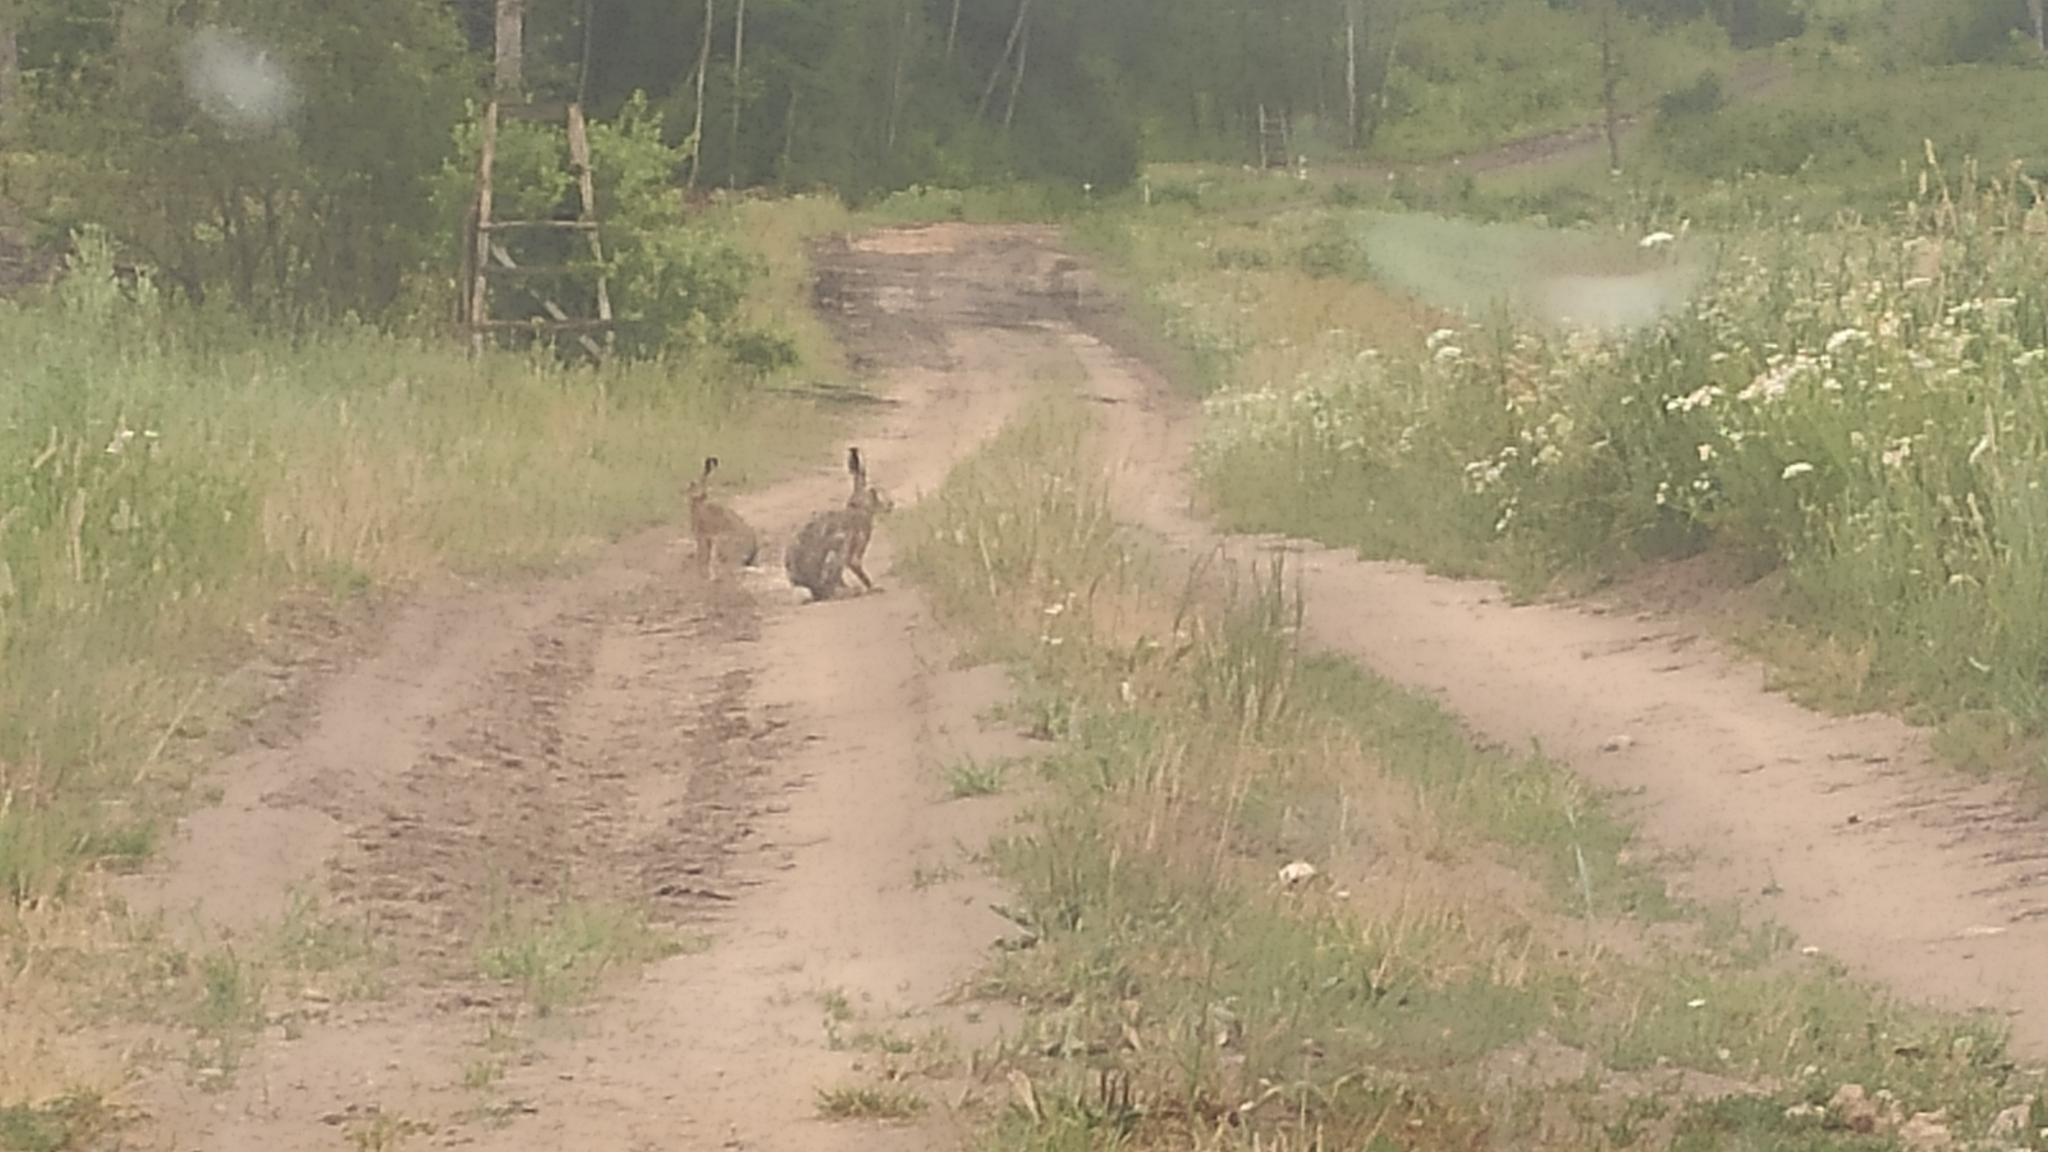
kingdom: Animalia
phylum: Chordata
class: Mammalia
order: Lagomorpha
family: Leporidae
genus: Lepus
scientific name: Lepus europaeus
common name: European hare
